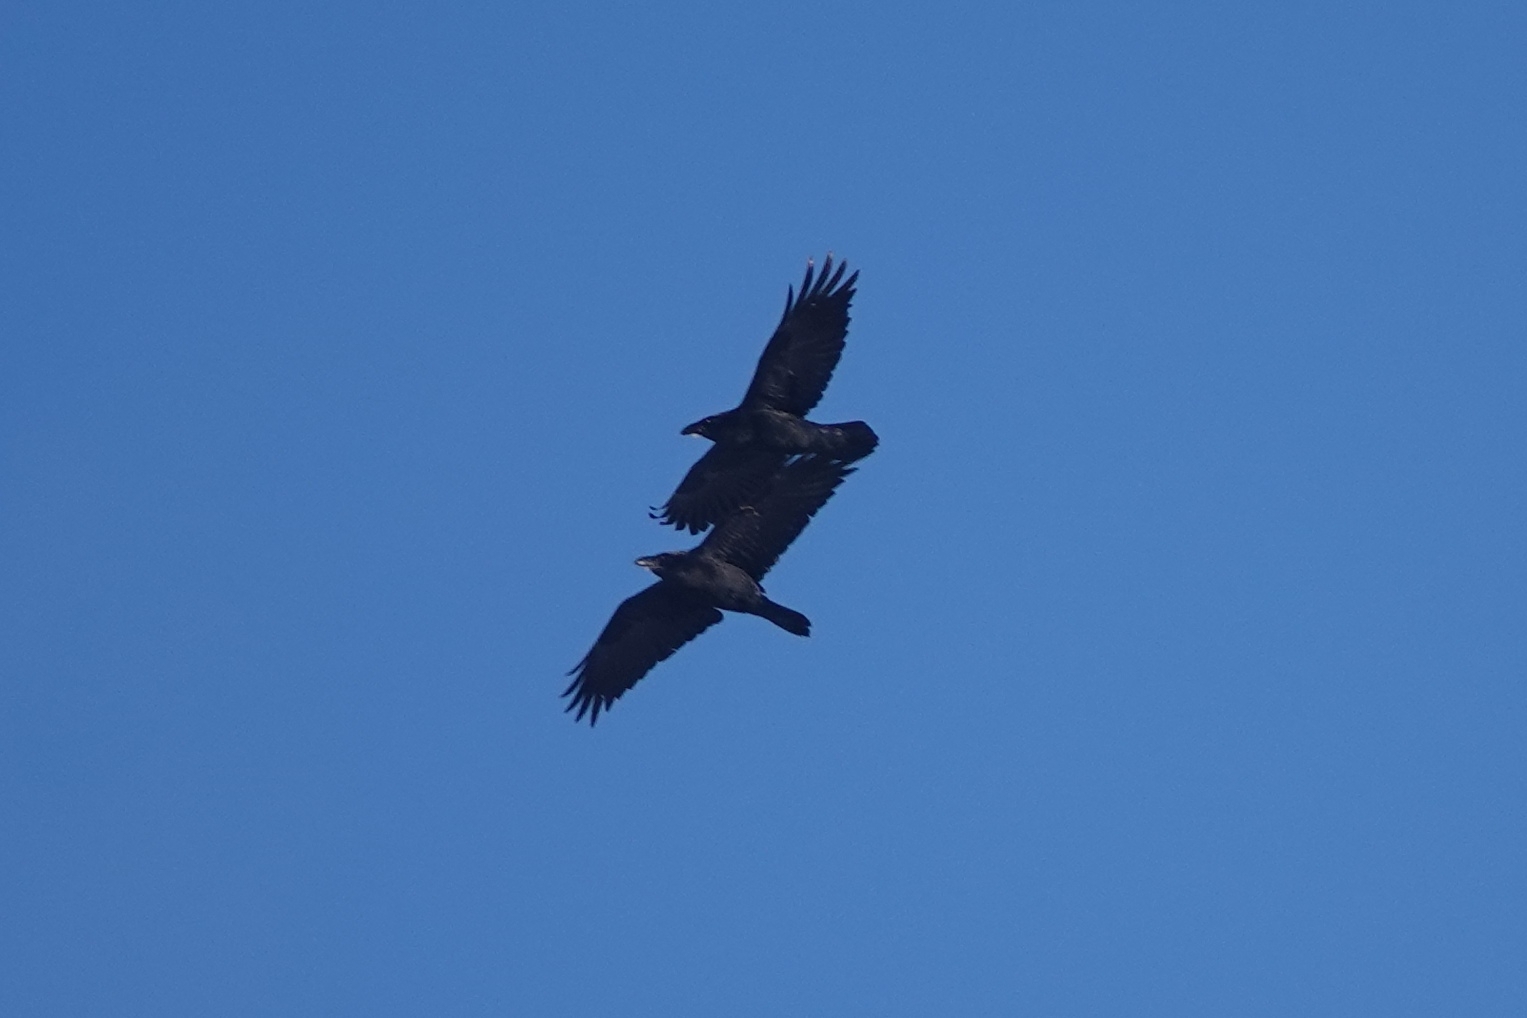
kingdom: Animalia
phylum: Chordata
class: Aves
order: Passeriformes
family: Corvidae
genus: Corvus
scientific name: Corvus corax
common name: Common raven
